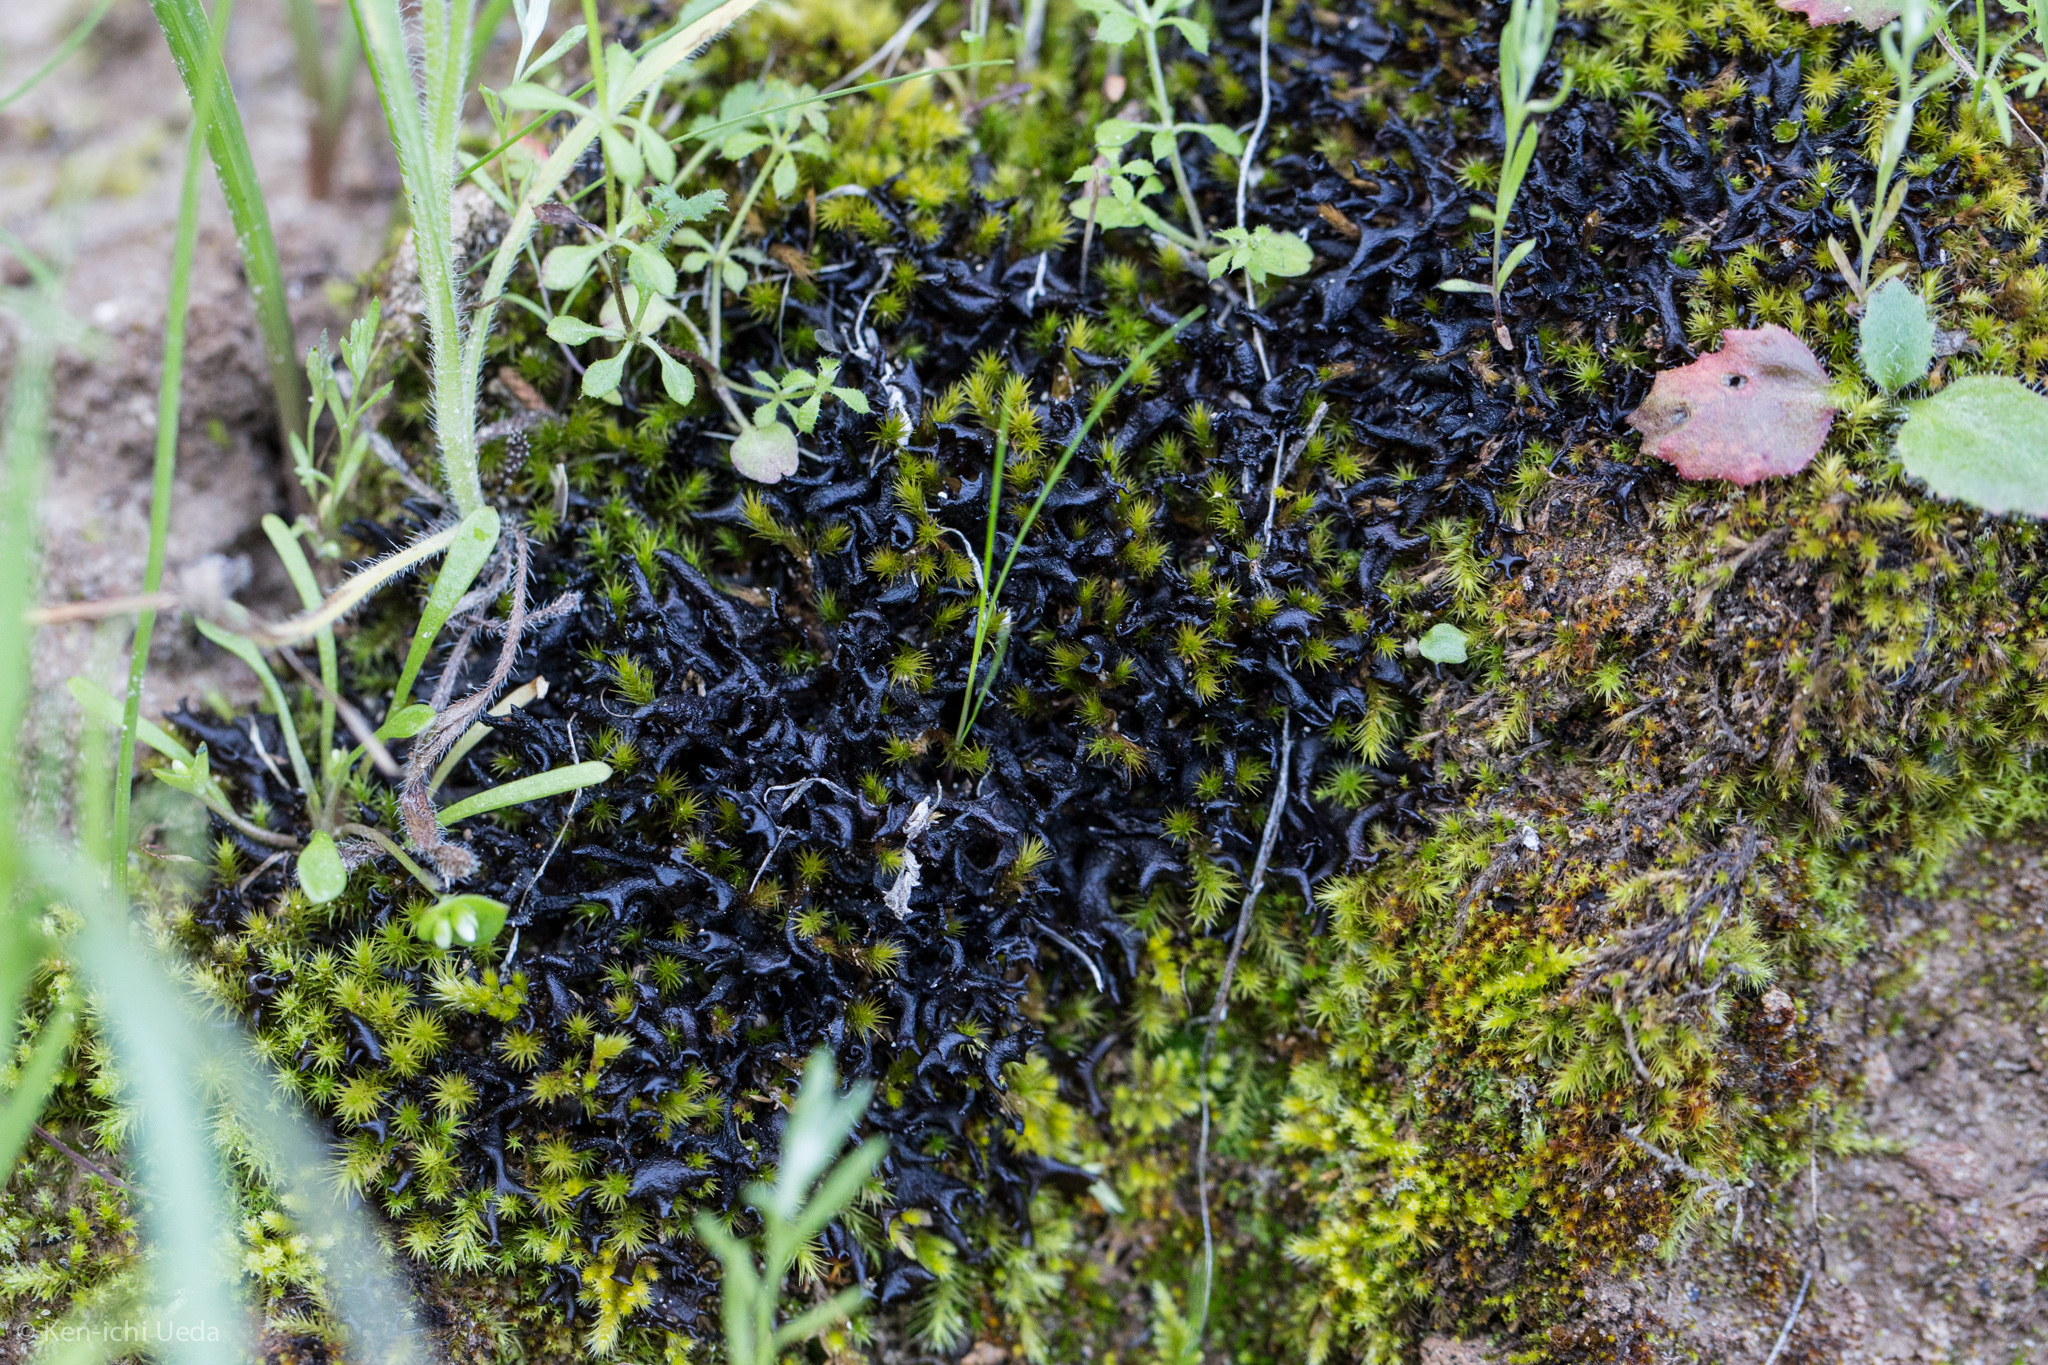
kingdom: Fungi
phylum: Ascomycota
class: Lecanoromycetes
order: Peltigerales
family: Collemataceae
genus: Scytinium
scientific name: Scytinium palmatum
